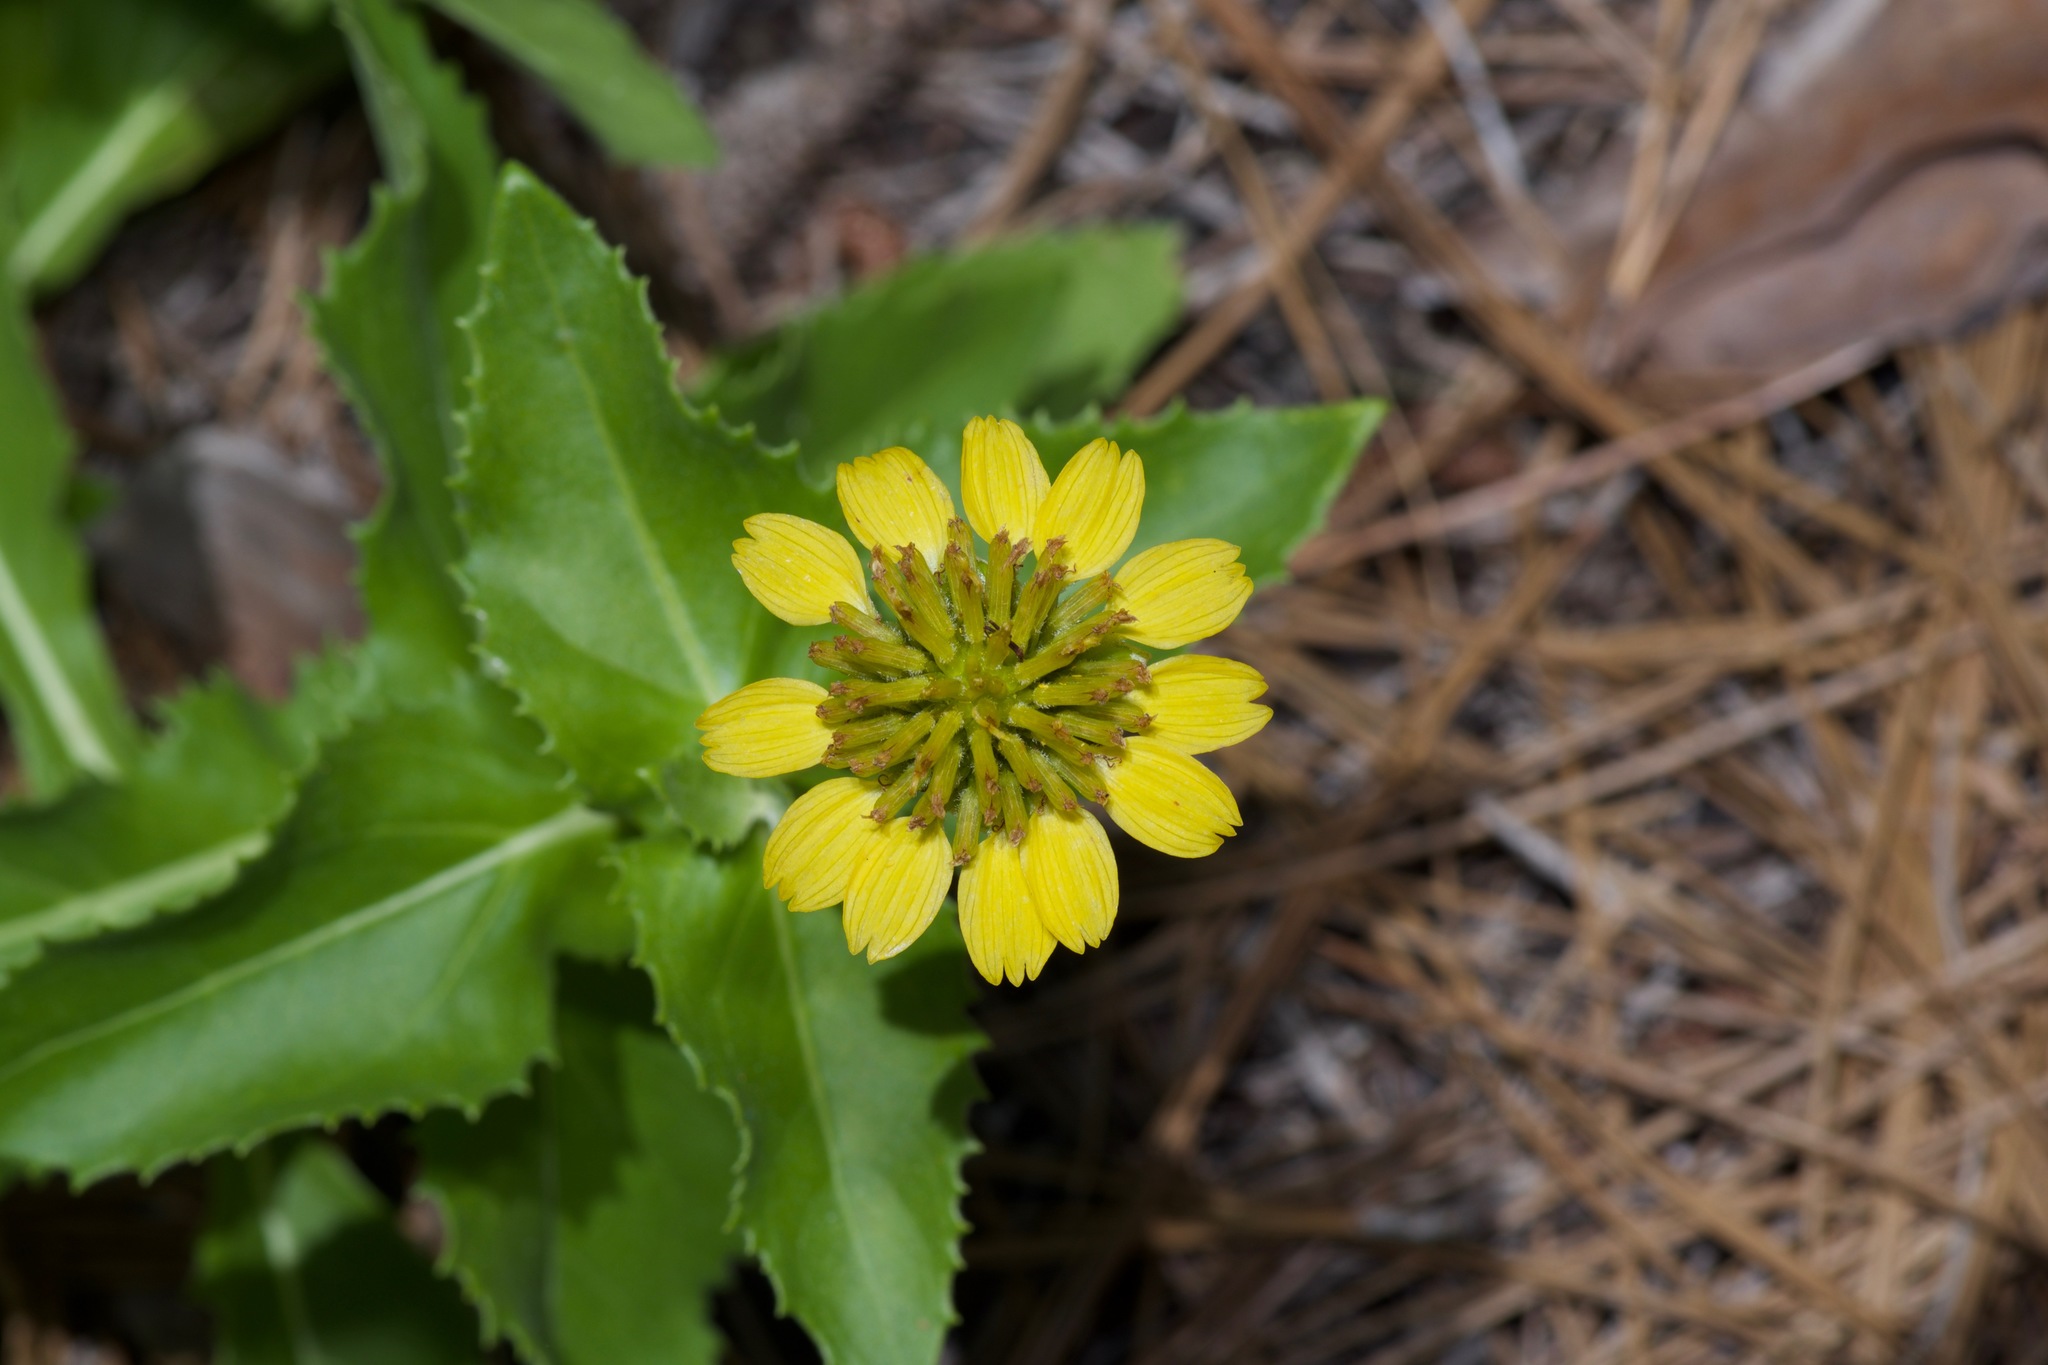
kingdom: Plantae
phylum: Tracheophyta
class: Magnoliopsida
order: Asterales
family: Asteraceae
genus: Tetragonotheca
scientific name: Tetragonotheca ludoviciana
